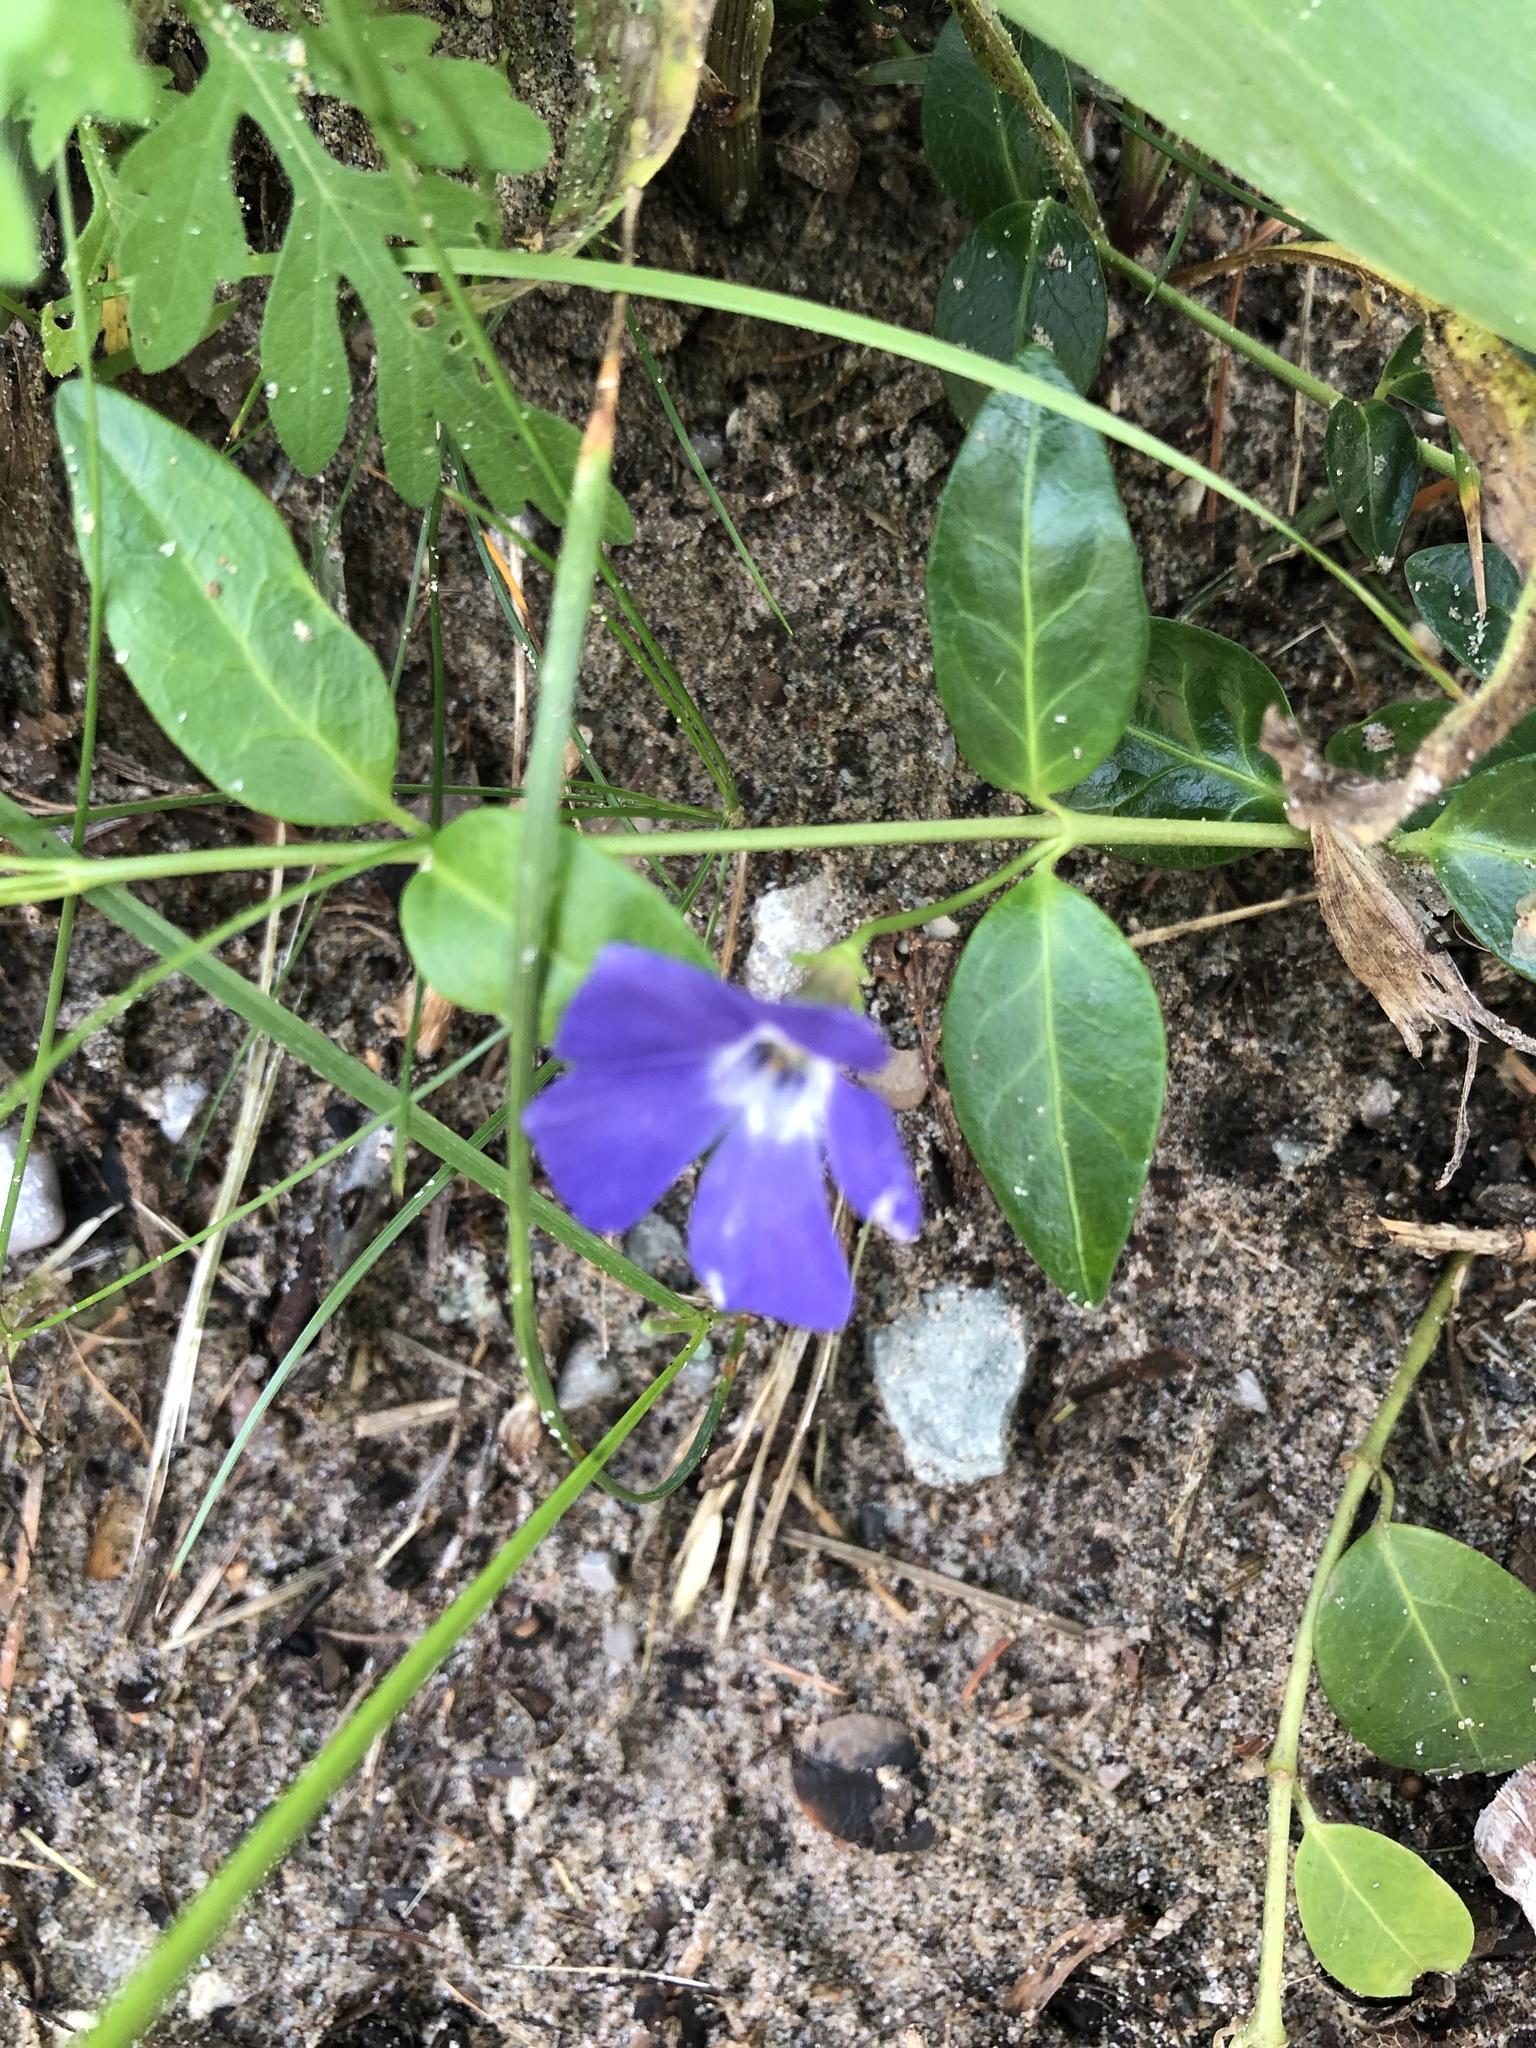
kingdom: Plantae
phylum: Tracheophyta
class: Magnoliopsida
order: Gentianales
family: Apocynaceae
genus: Vinca
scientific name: Vinca minor
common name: Lesser periwinkle
